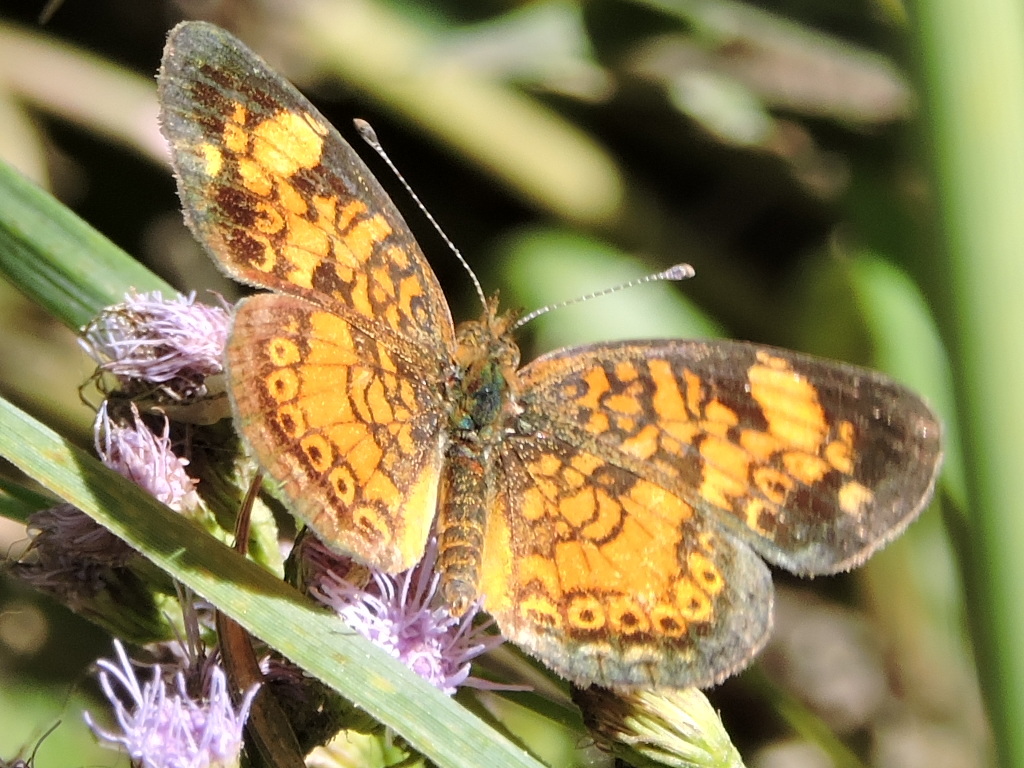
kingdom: Animalia
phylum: Arthropoda
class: Insecta
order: Lepidoptera
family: Nymphalidae
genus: Phyciodes
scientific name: Phyciodes tharos
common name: Pearl crescent
